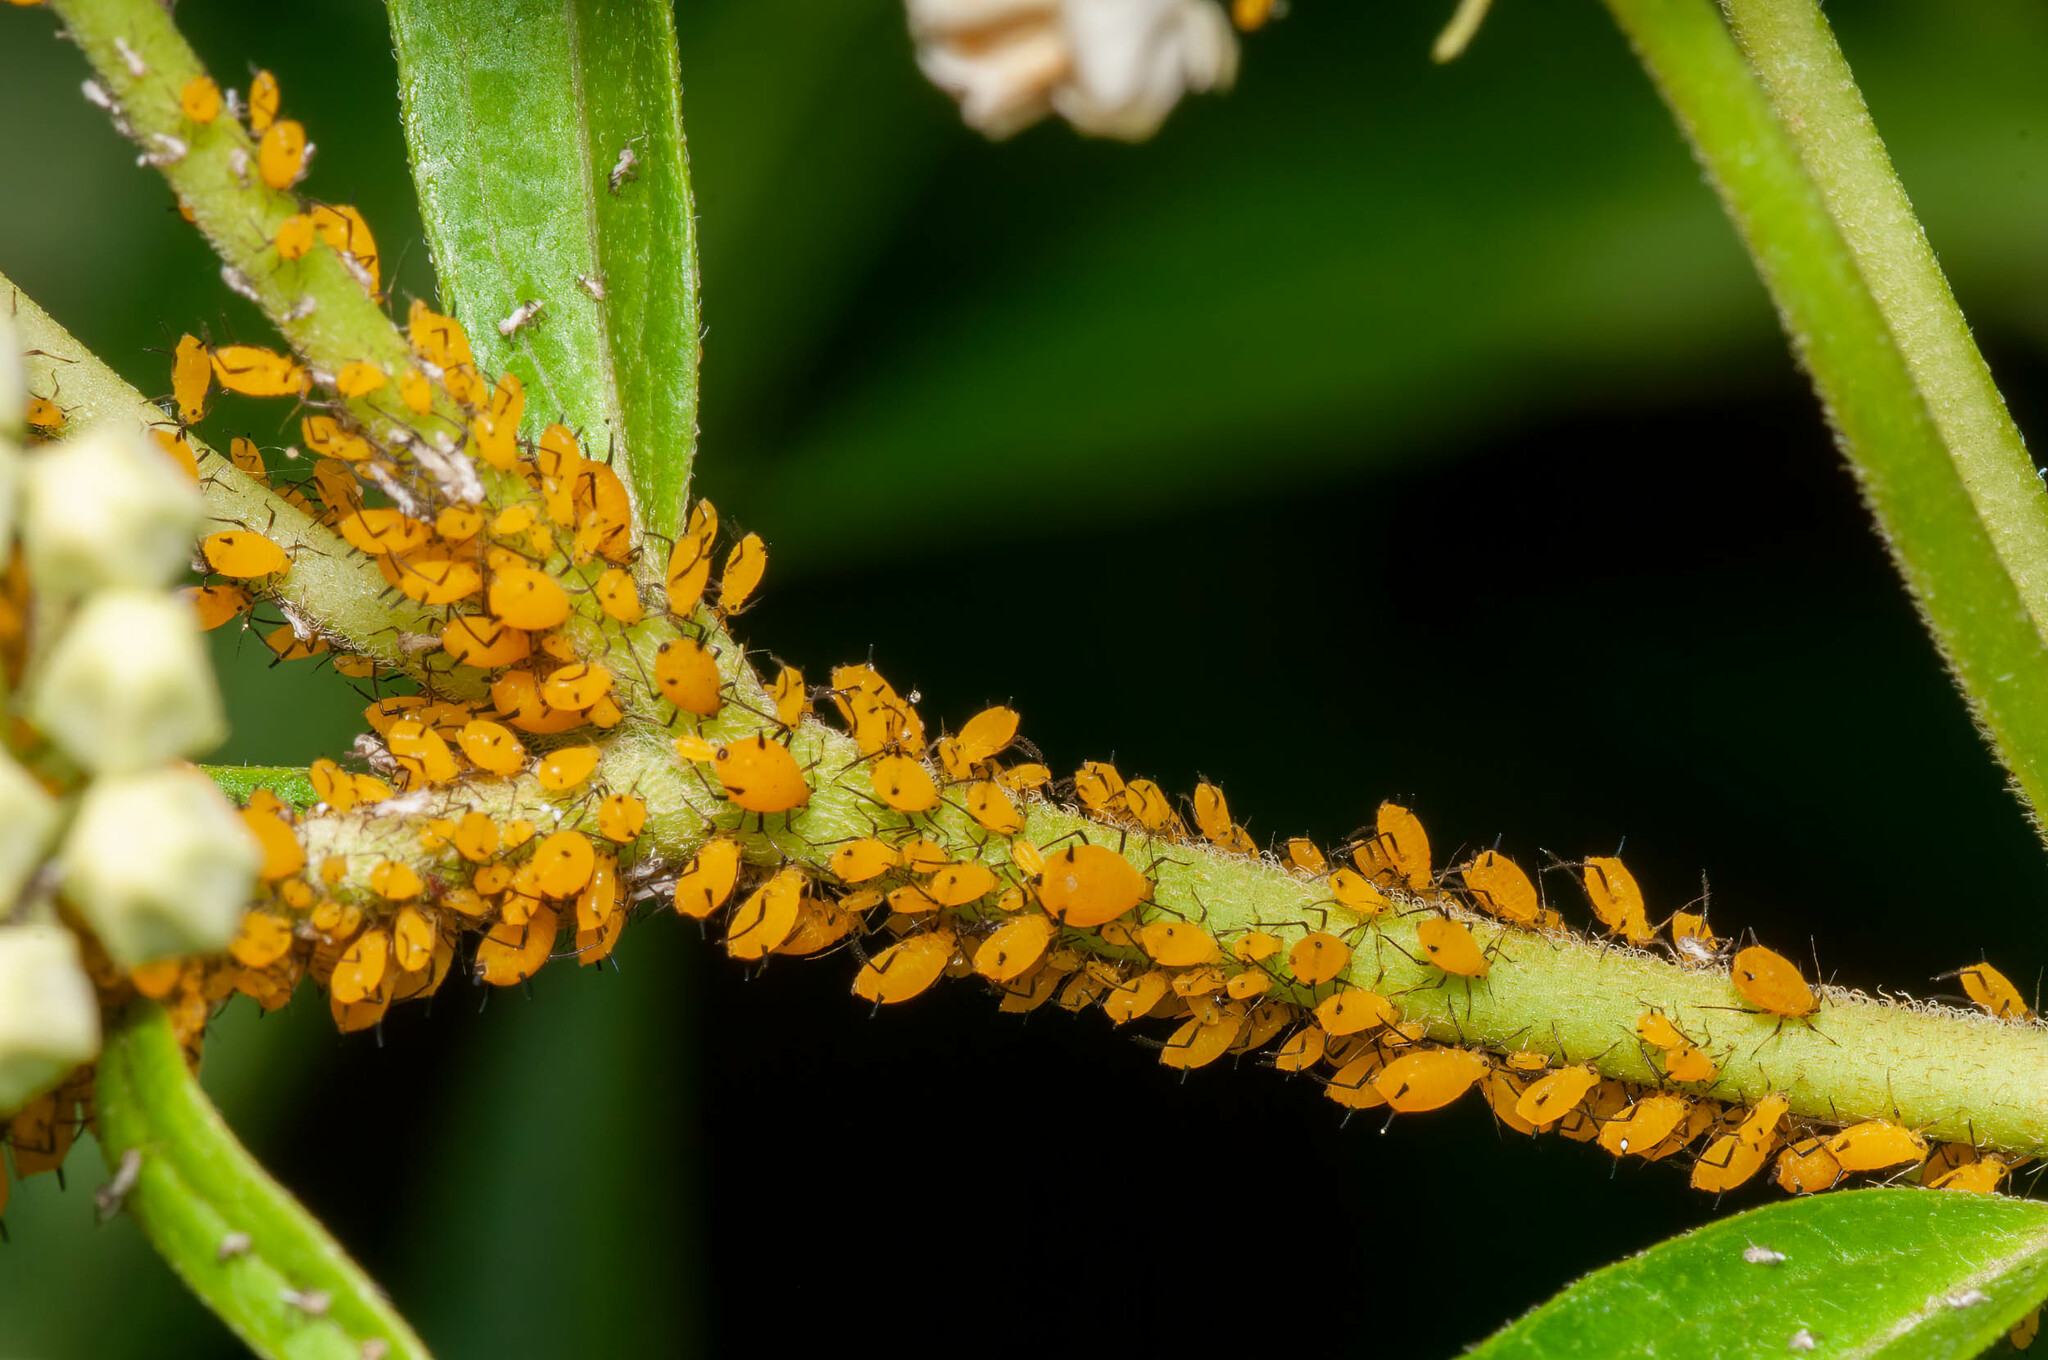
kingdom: Animalia
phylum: Arthropoda
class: Insecta
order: Hemiptera
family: Aphididae
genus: Aphis
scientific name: Aphis nerii
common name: Oleander aphid
